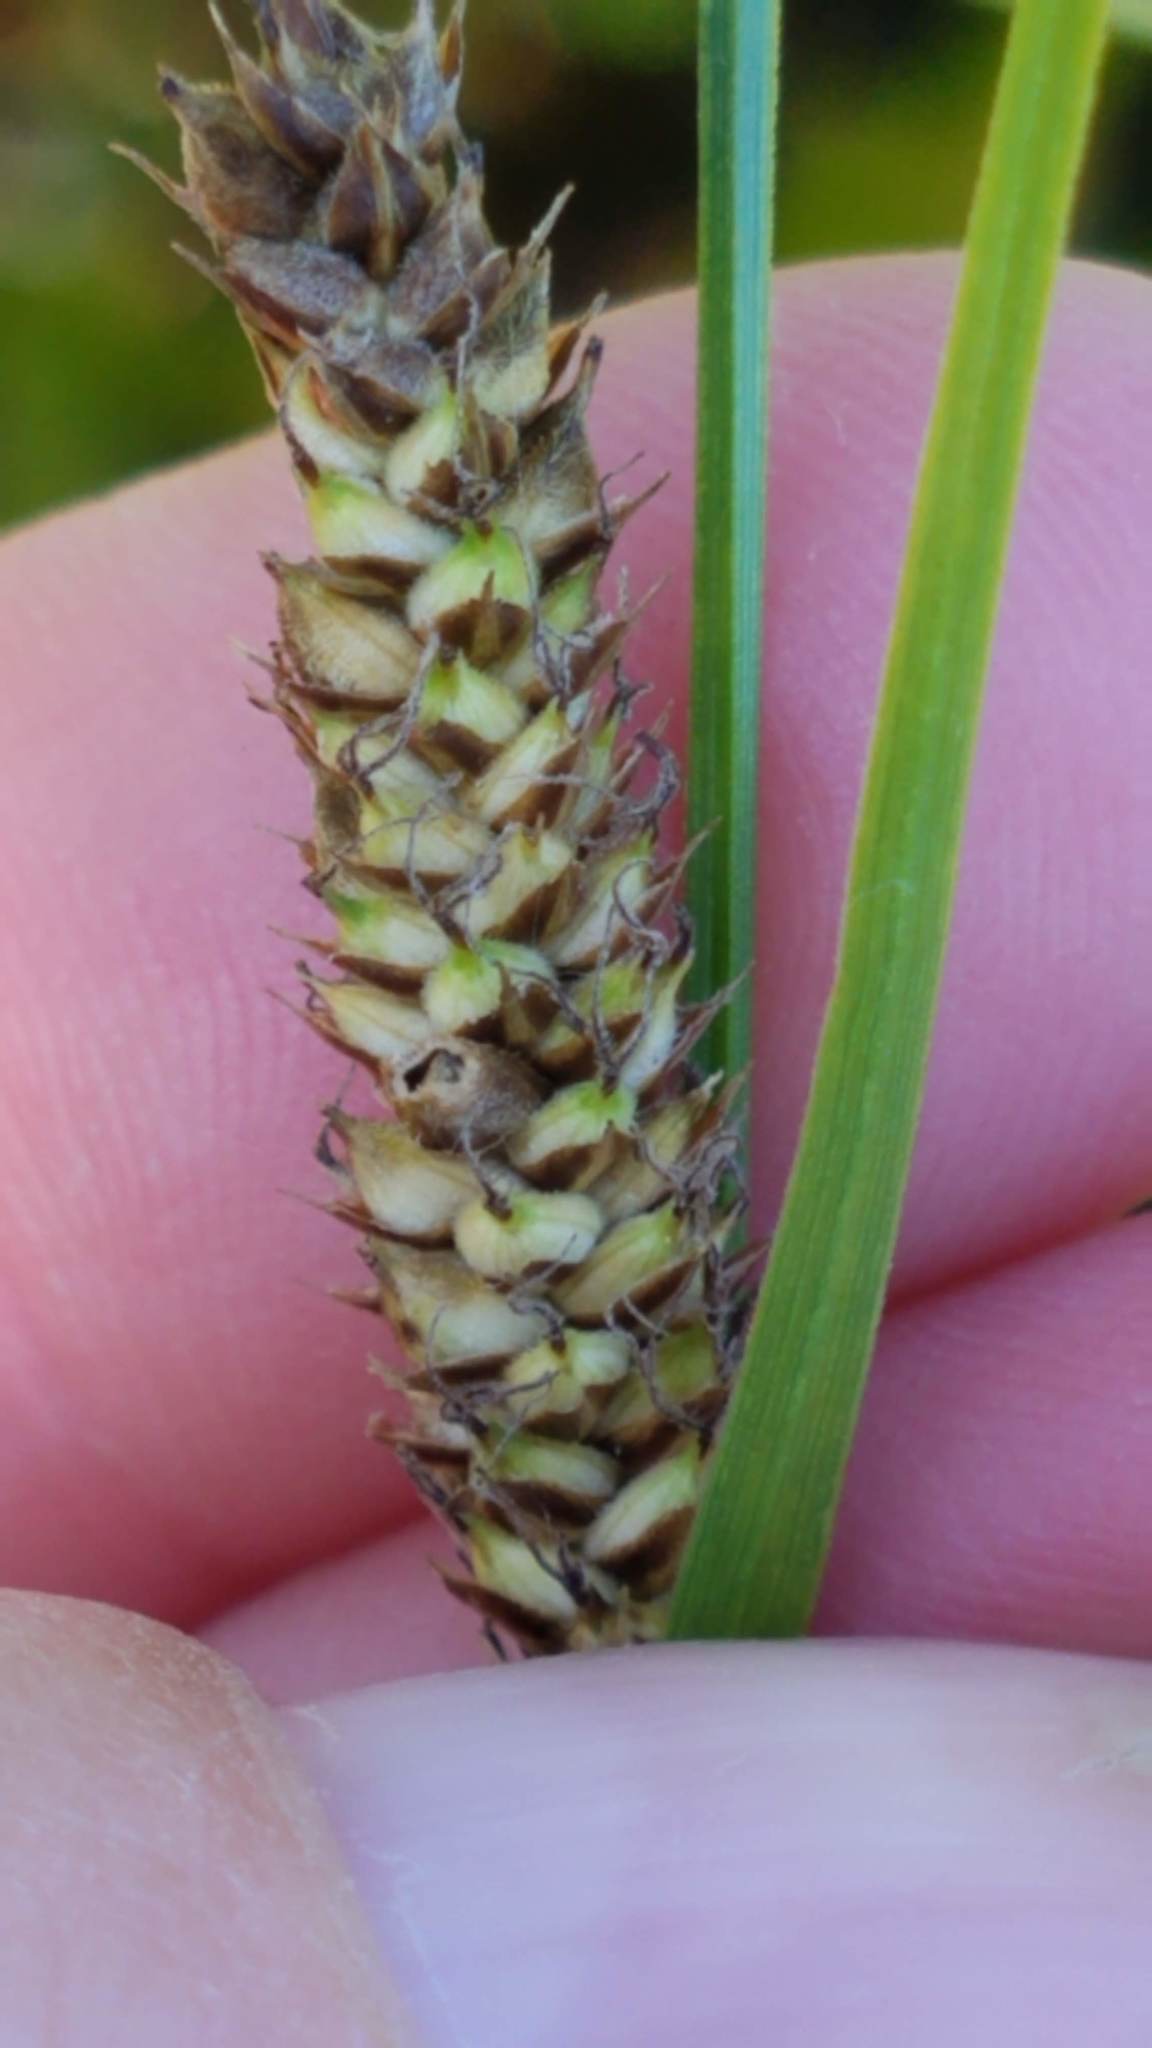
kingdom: Plantae
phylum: Tracheophyta
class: Liliopsida
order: Poales
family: Cyperaceae
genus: Carex
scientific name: Carex lasiocarpa
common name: Slender sedge
